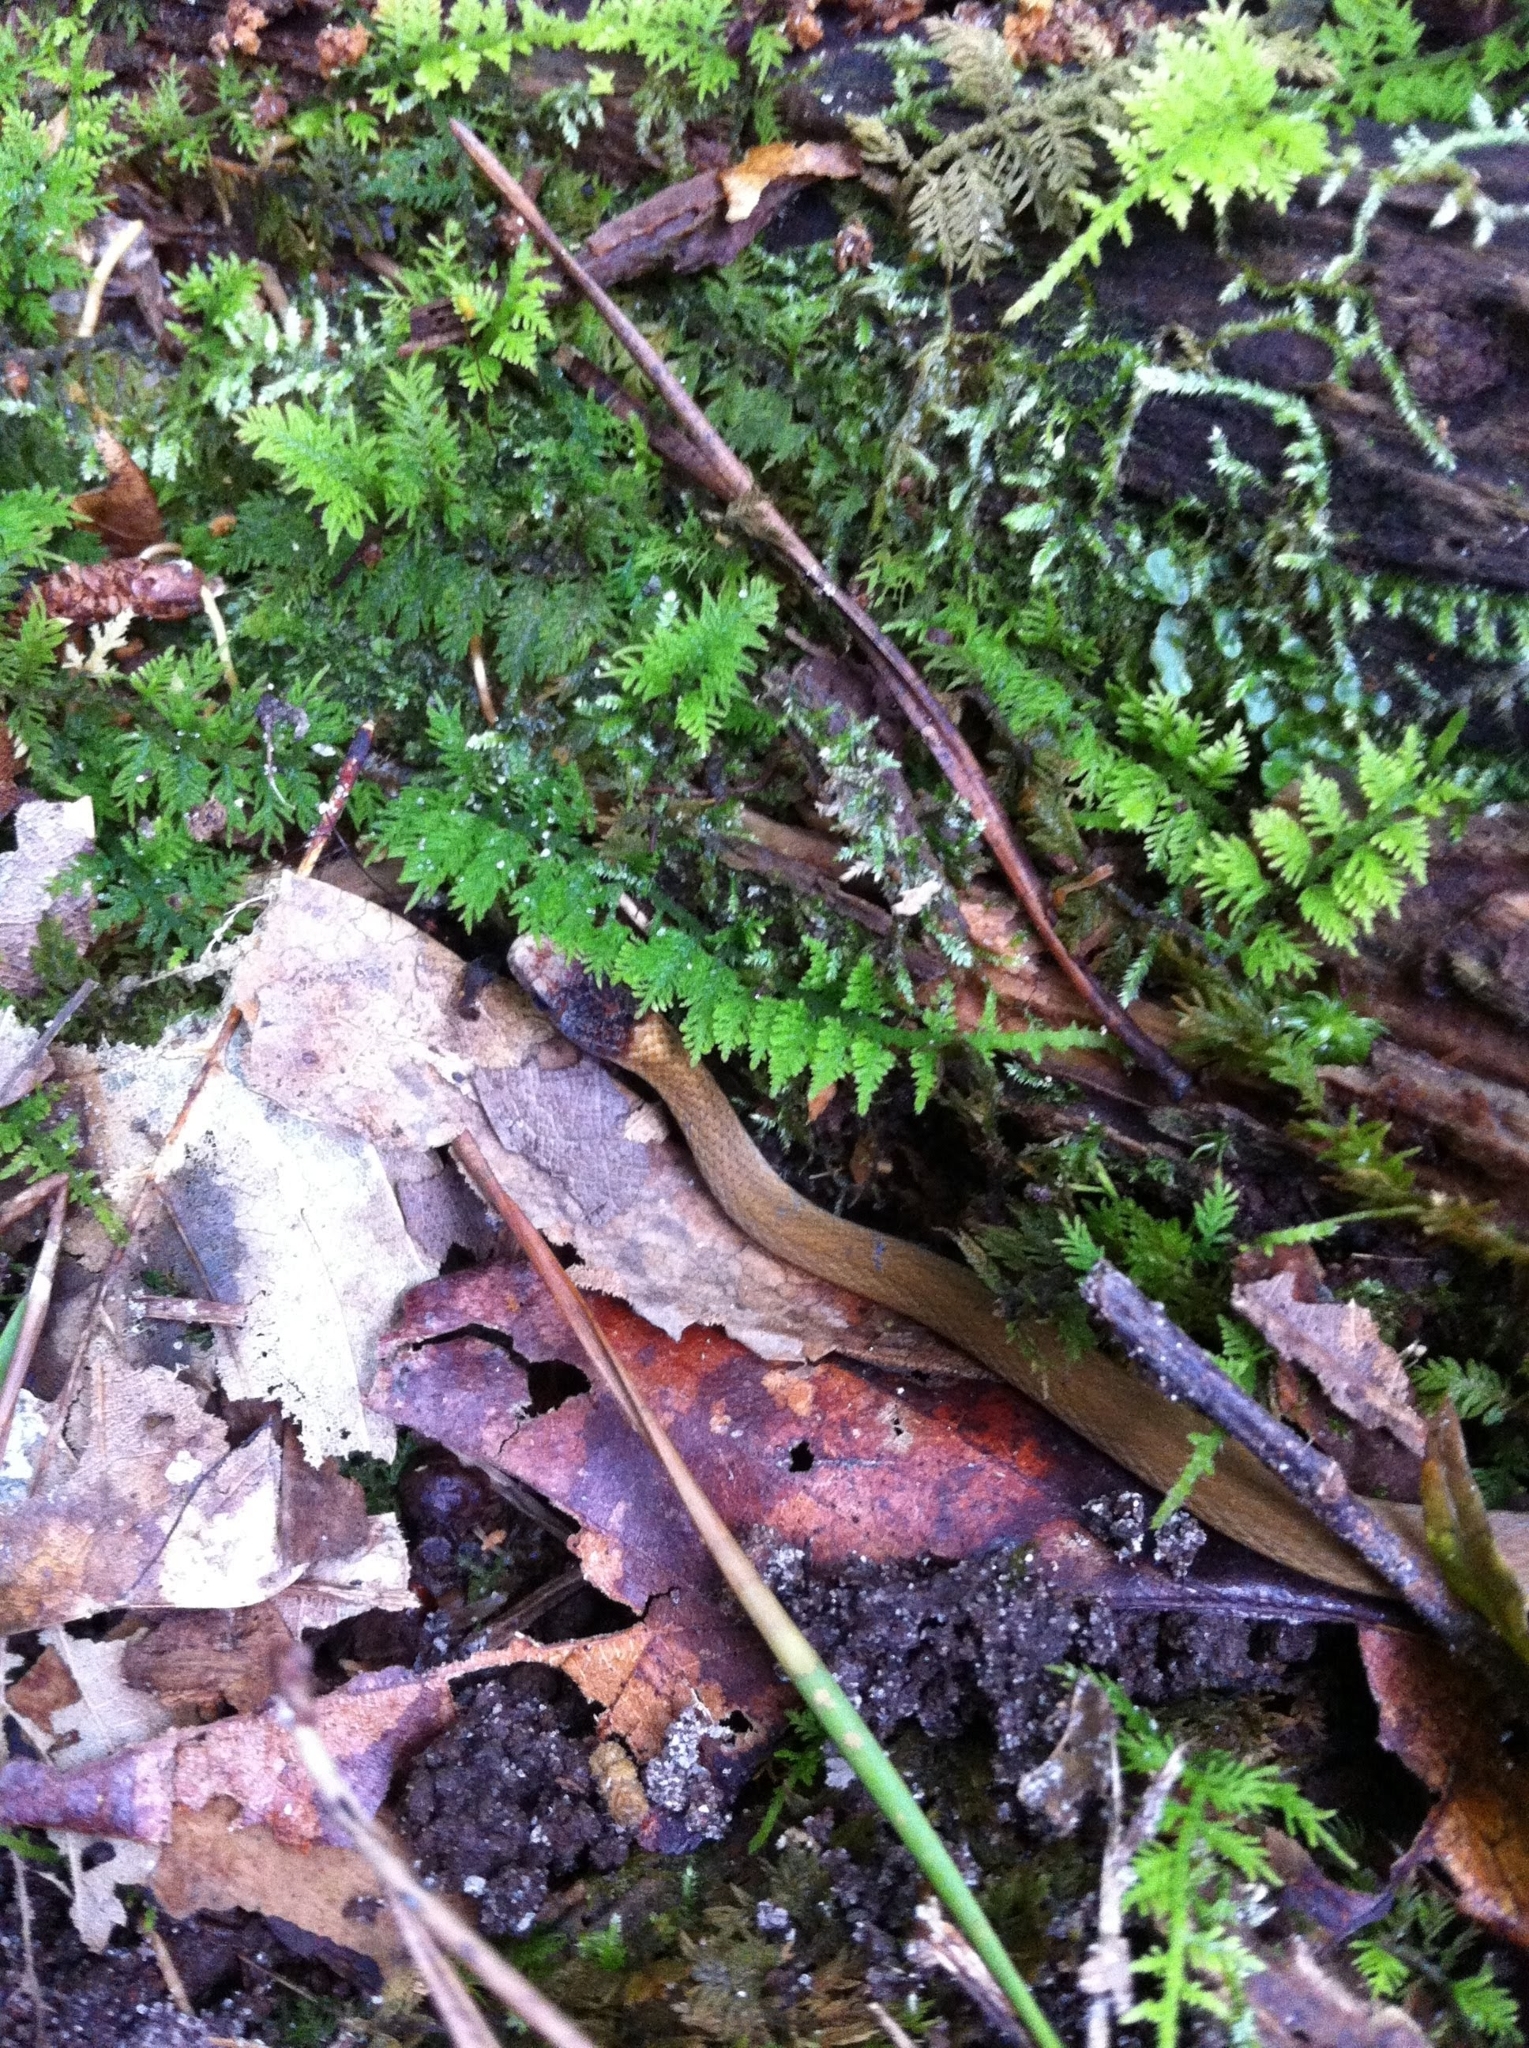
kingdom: Animalia
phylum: Chordata
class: Squamata
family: Colubridae
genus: Storeria
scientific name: Storeria occipitomaculata
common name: Redbelly snake
